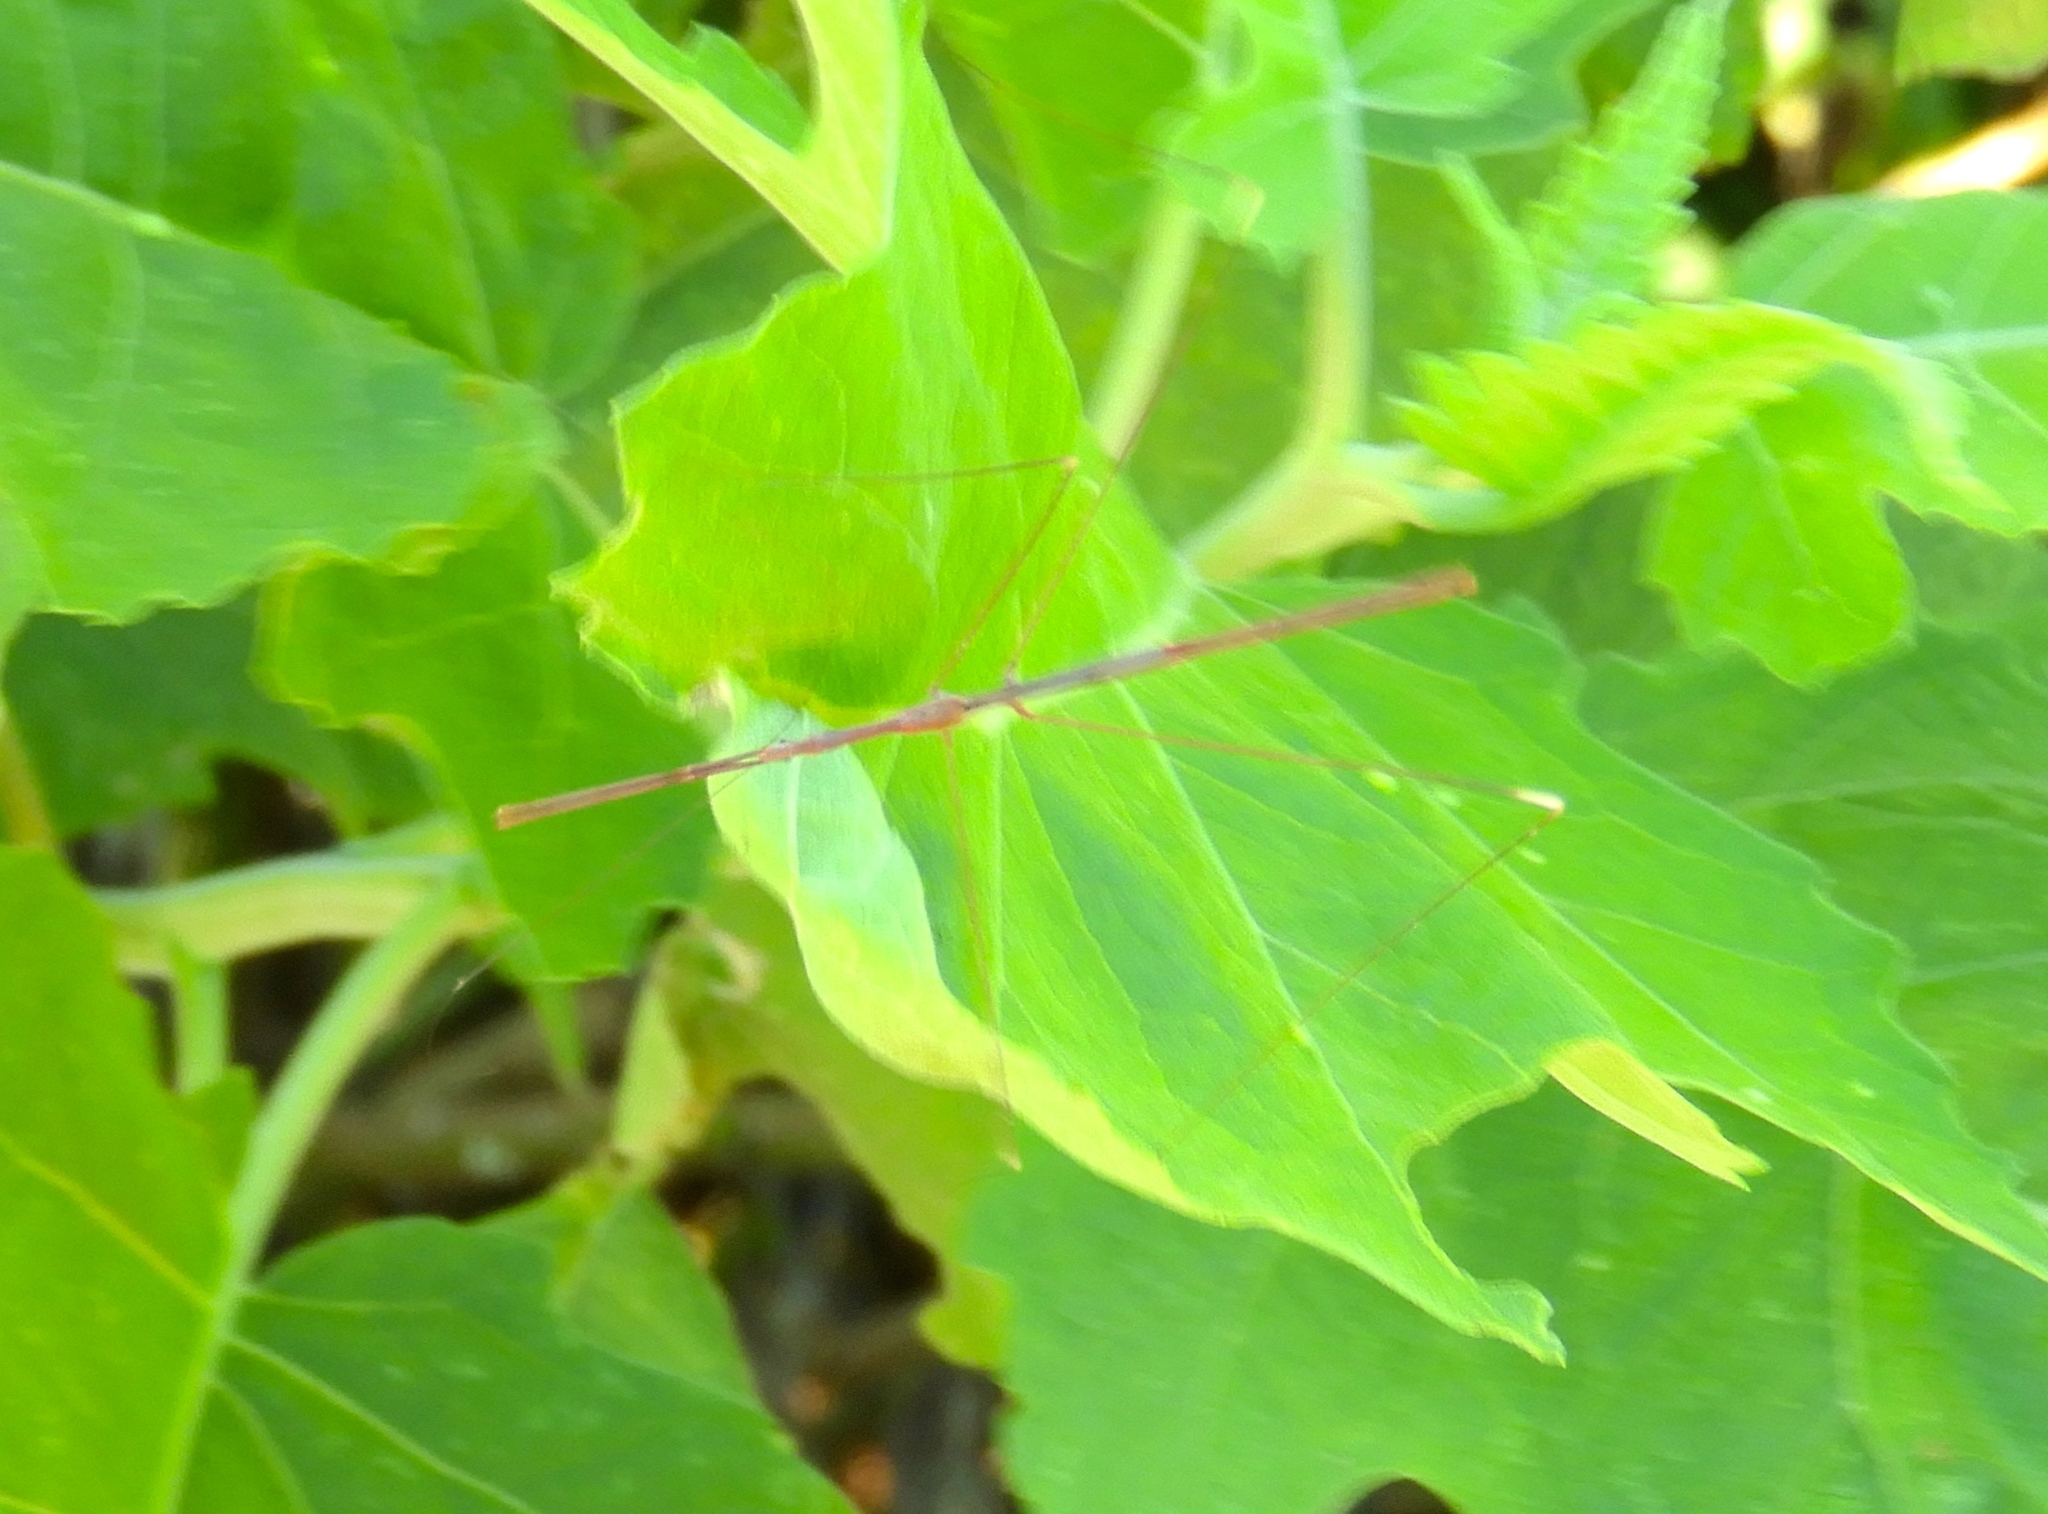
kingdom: Animalia
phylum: Arthropoda
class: Insecta
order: Hemiptera
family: Reduviidae
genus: Emesaya
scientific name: Emesaya brevipennis
